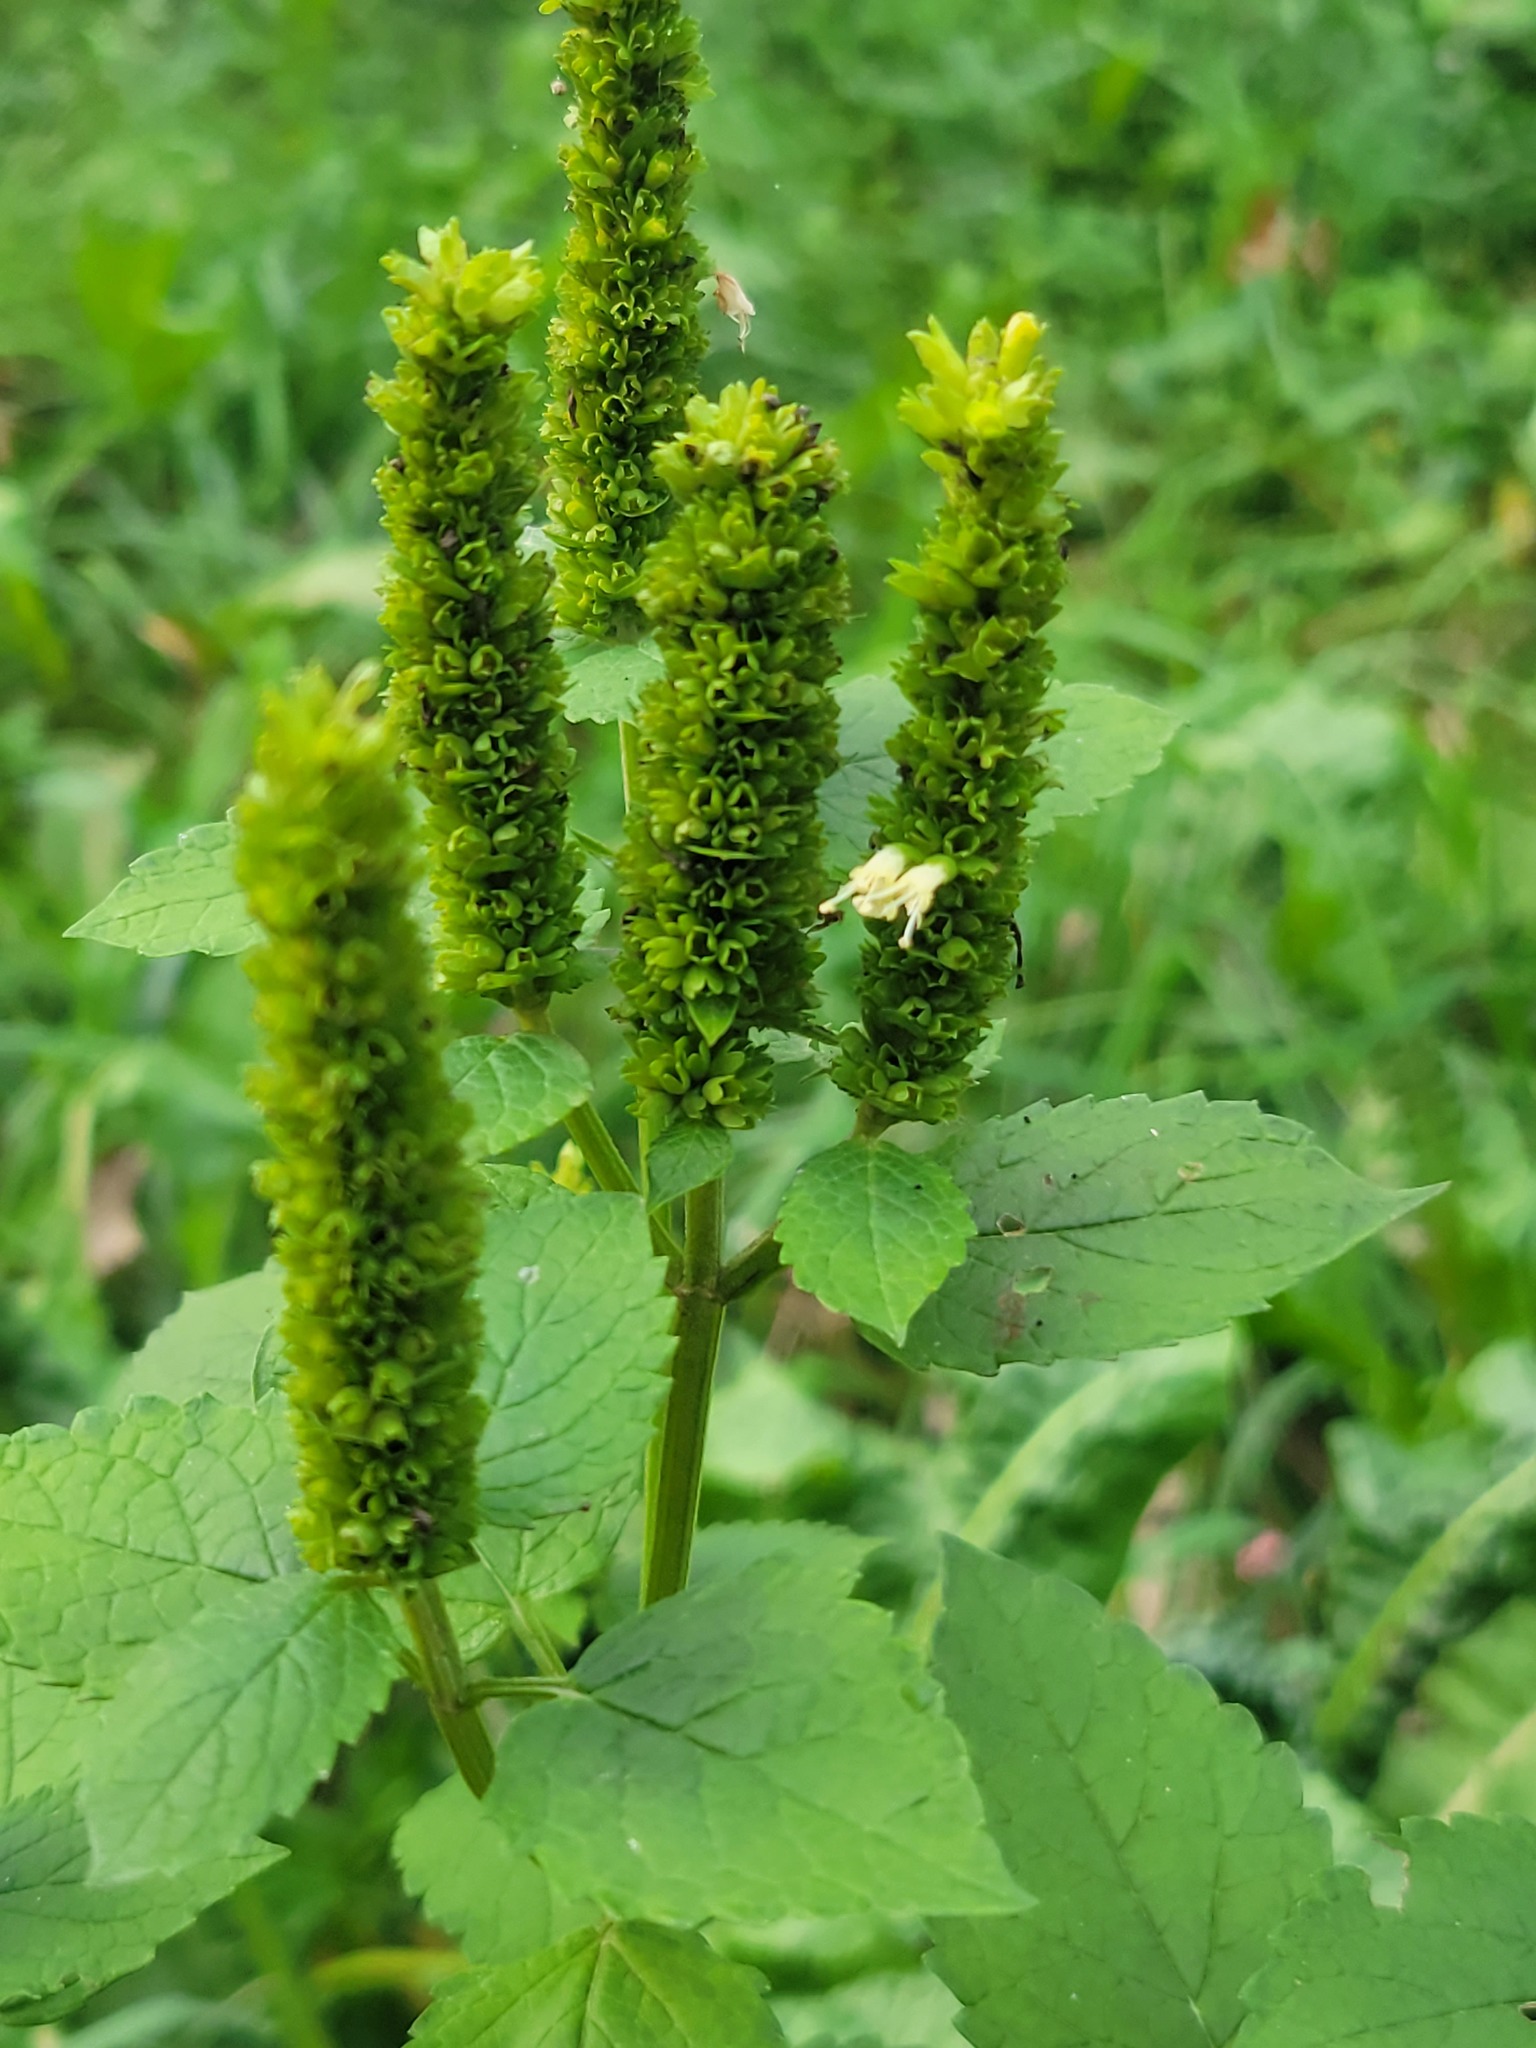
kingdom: Plantae
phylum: Tracheophyta
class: Magnoliopsida
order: Lamiales
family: Lamiaceae
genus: Agastache
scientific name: Agastache nepetoides
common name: Catnip giant hyssop
